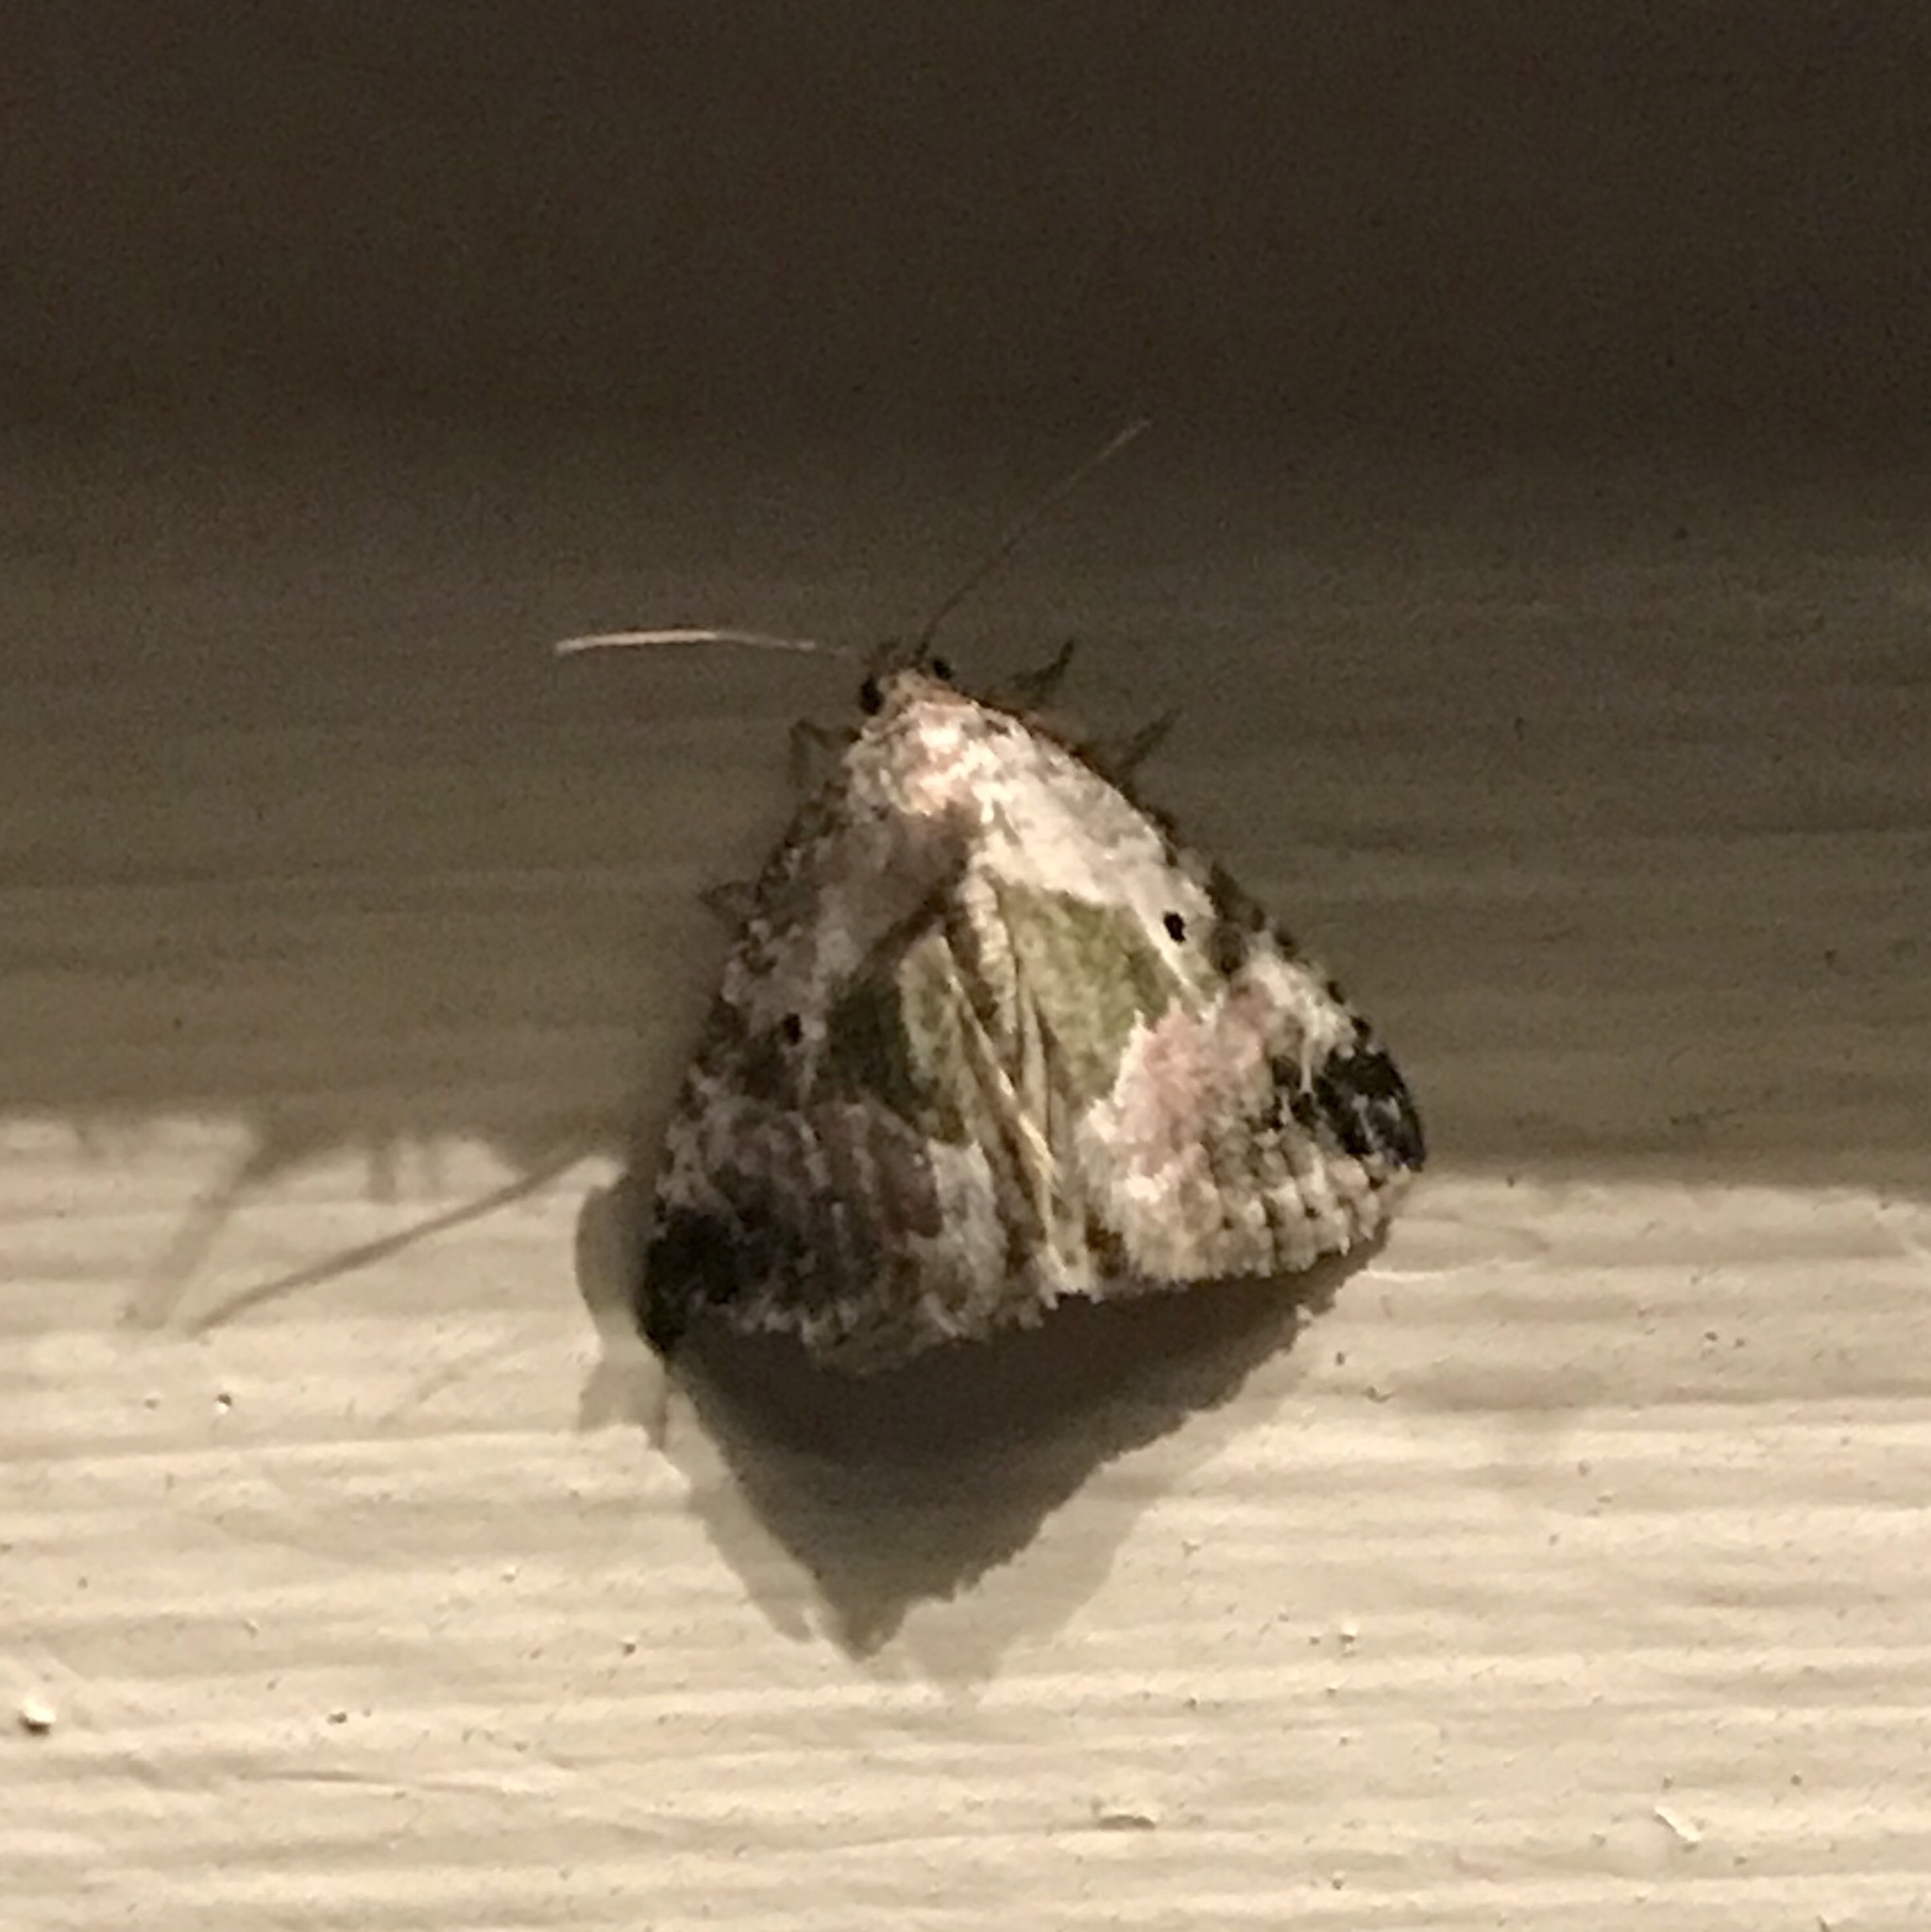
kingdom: Animalia
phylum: Arthropoda
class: Insecta
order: Lepidoptera
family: Noctuidae
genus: Maliattha
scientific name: Maliattha synochitis
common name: Black-dotted glyph
